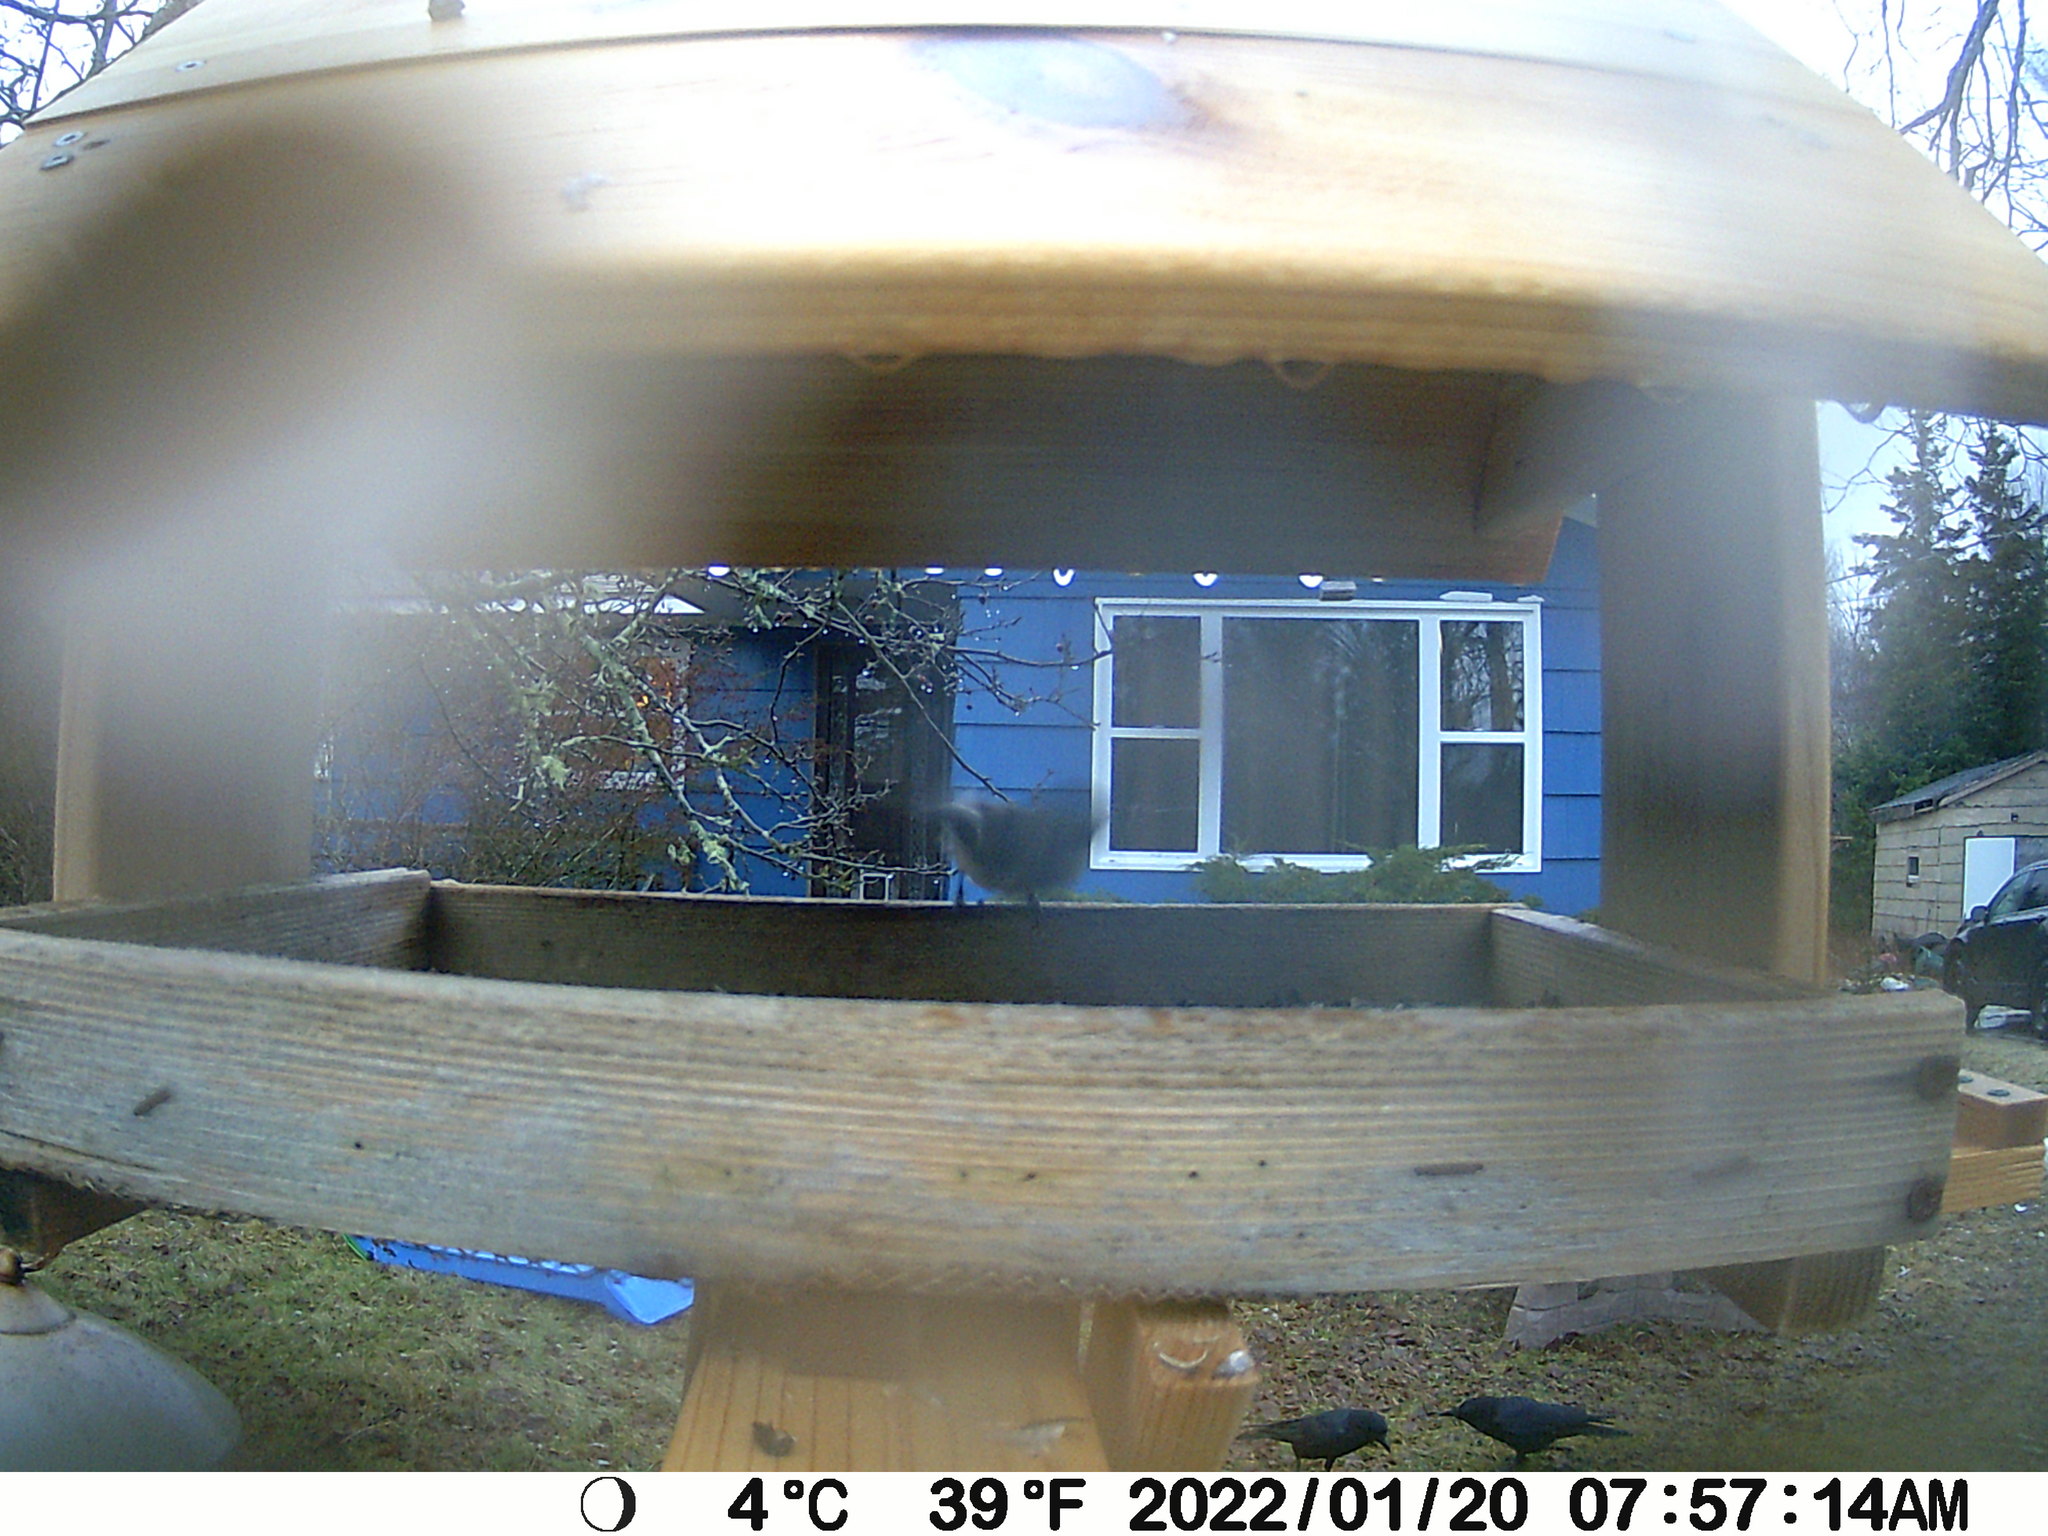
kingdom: Animalia
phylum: Chordata
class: Aves
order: Passeriformes
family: Corvidae
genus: Corvus
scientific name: Corvus brachyrhynchos
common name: American crow
